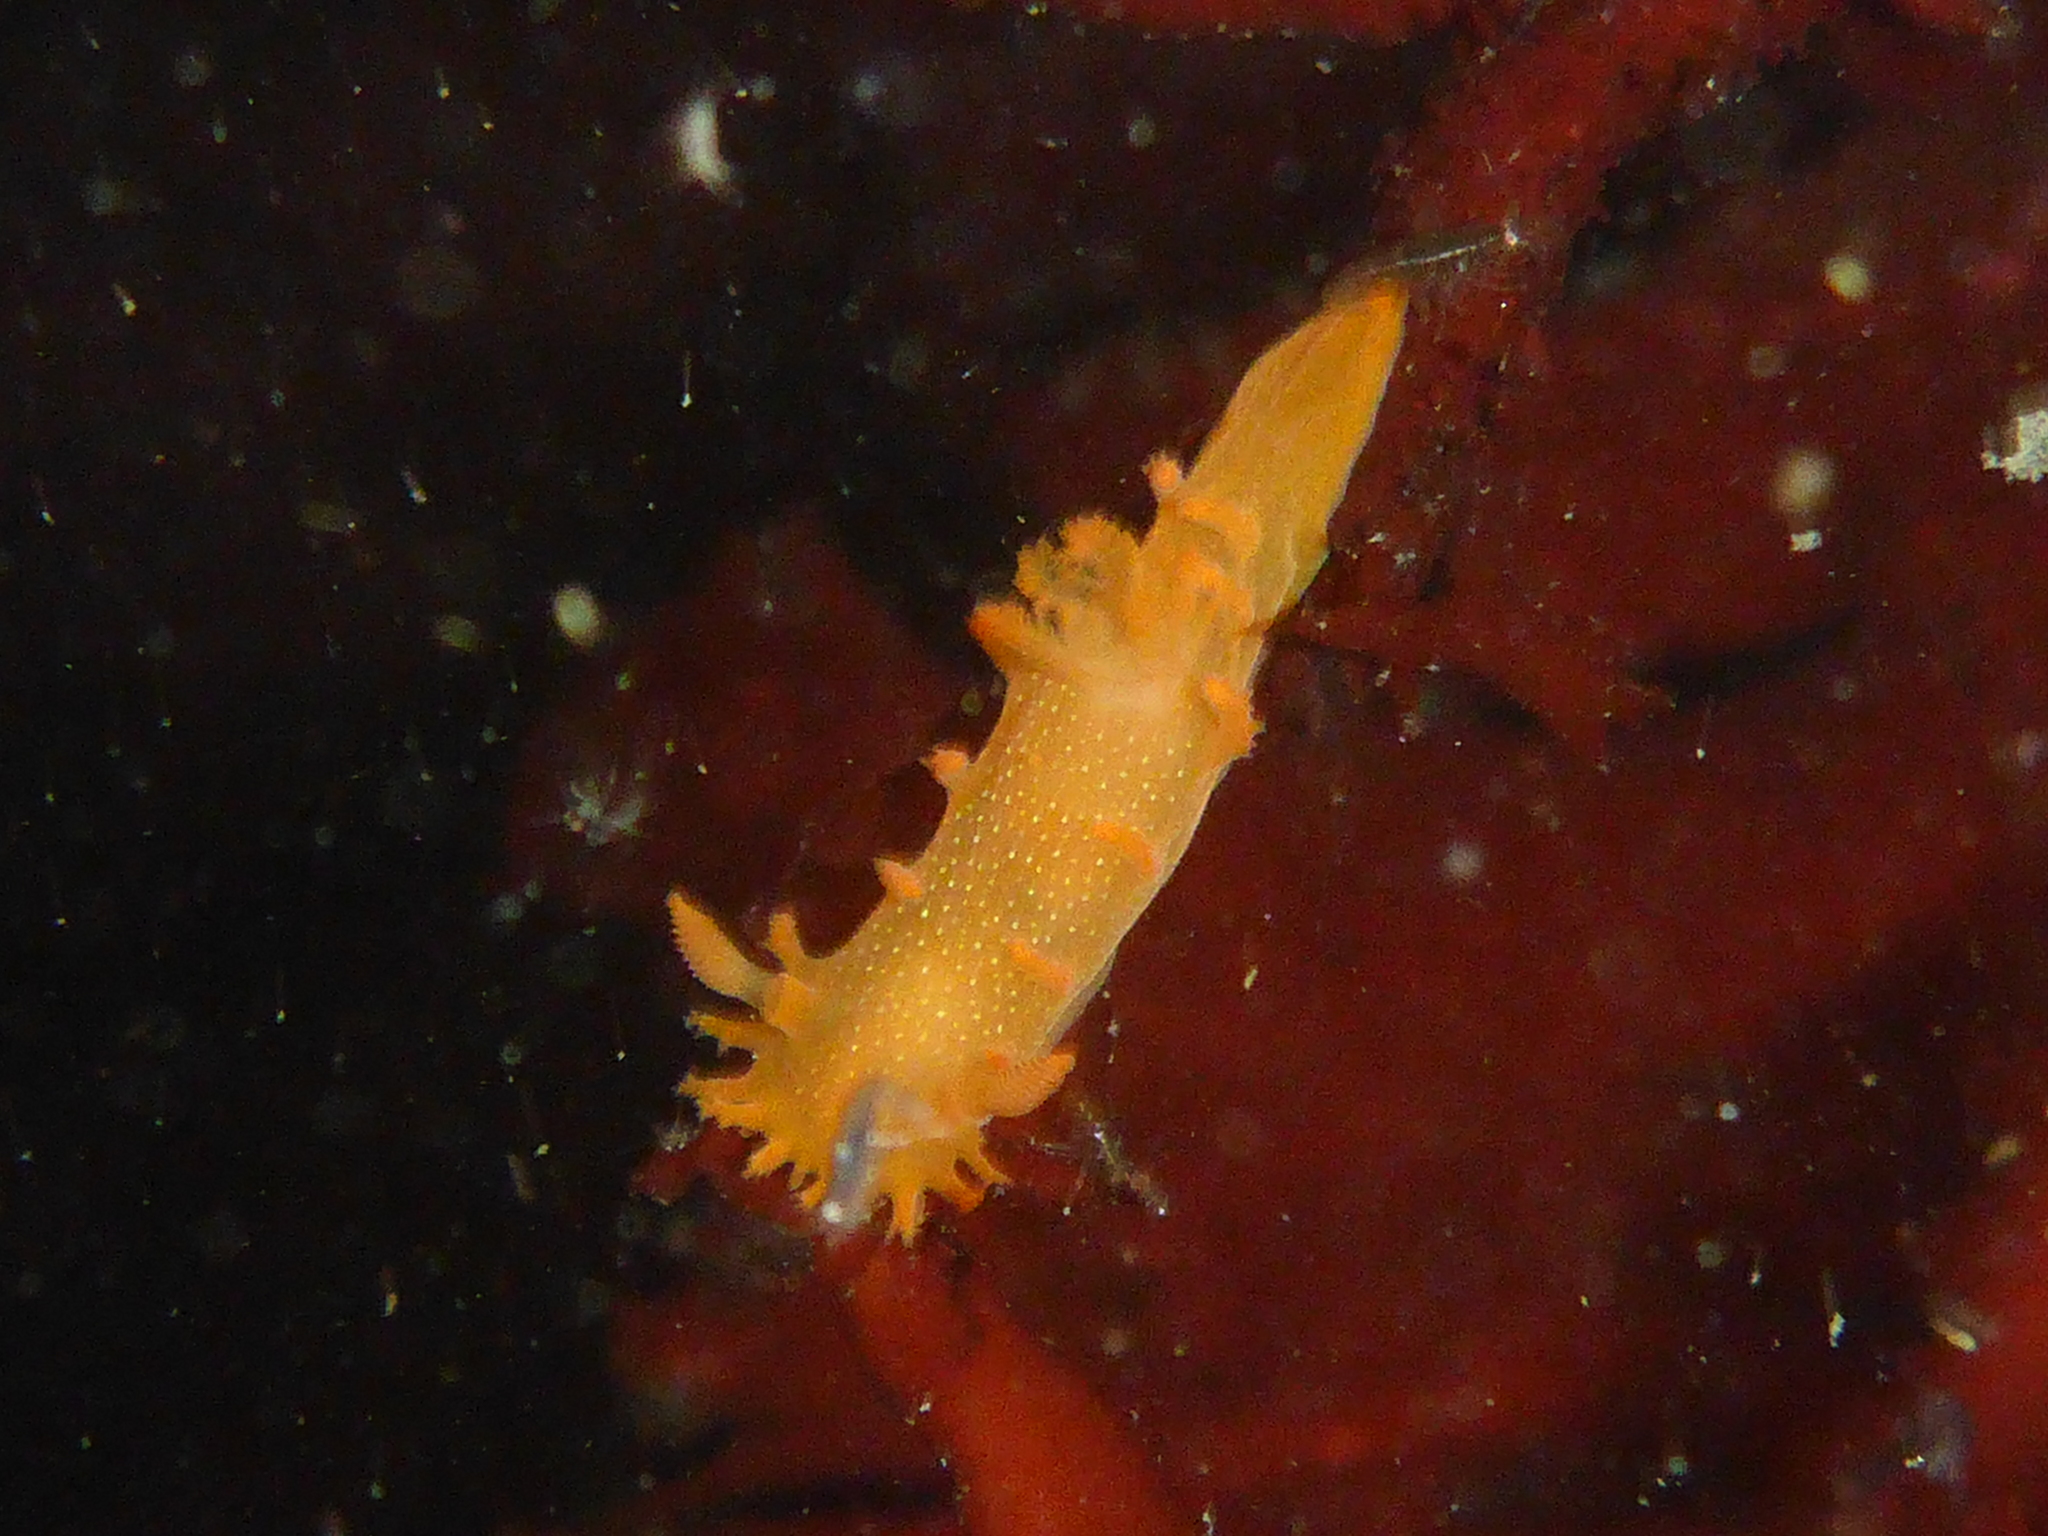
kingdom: Animalia
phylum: Mollusca
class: Gastropoda
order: Nudibranchia
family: Polyceridae
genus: Triopha
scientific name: Triopha maculata
